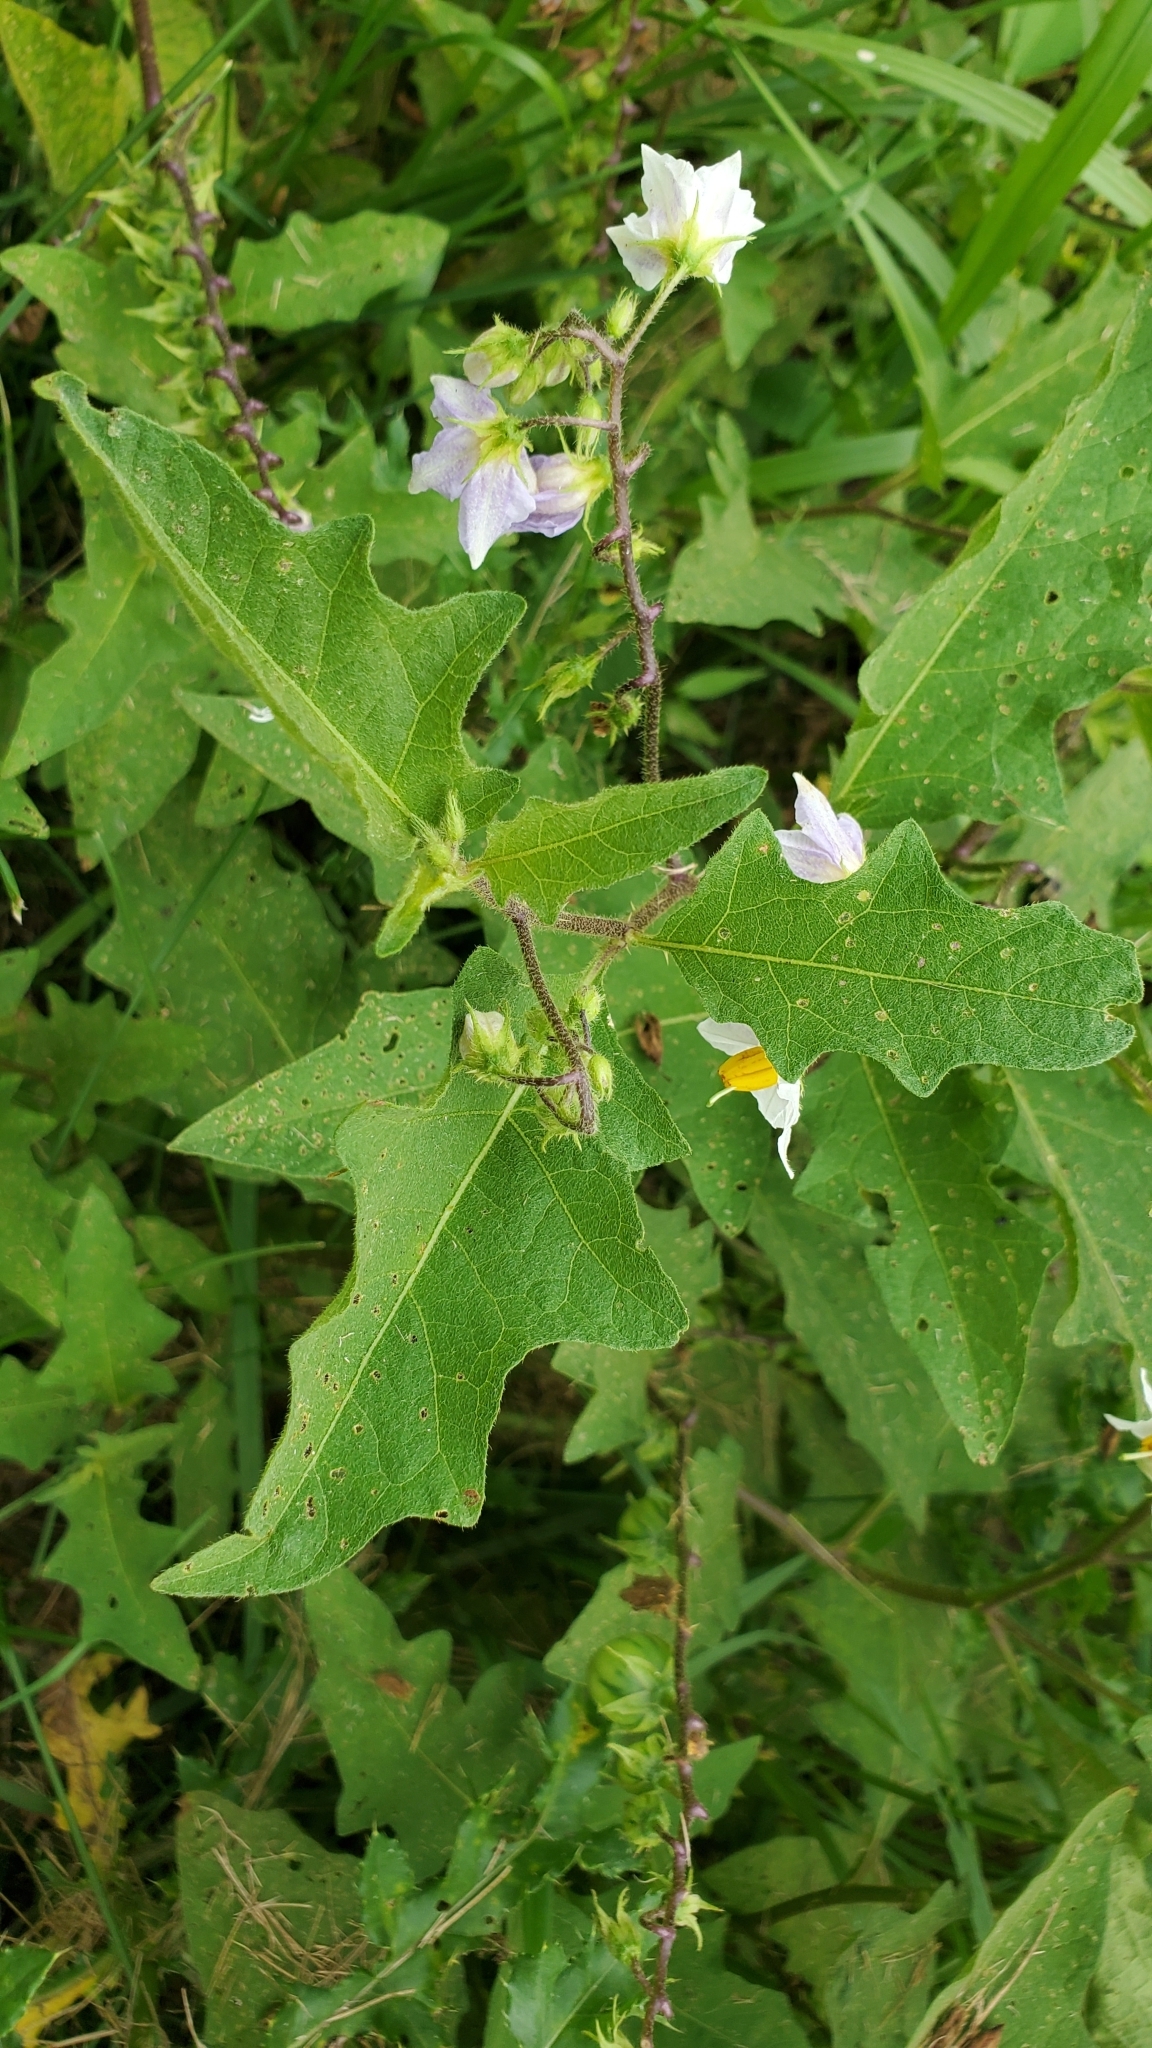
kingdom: Plantae
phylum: Tracheophyta
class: Magnoliopsida
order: Solanales
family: Solanaceae
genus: Solanum
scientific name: Solanum carolinense
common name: Horse-nettle
